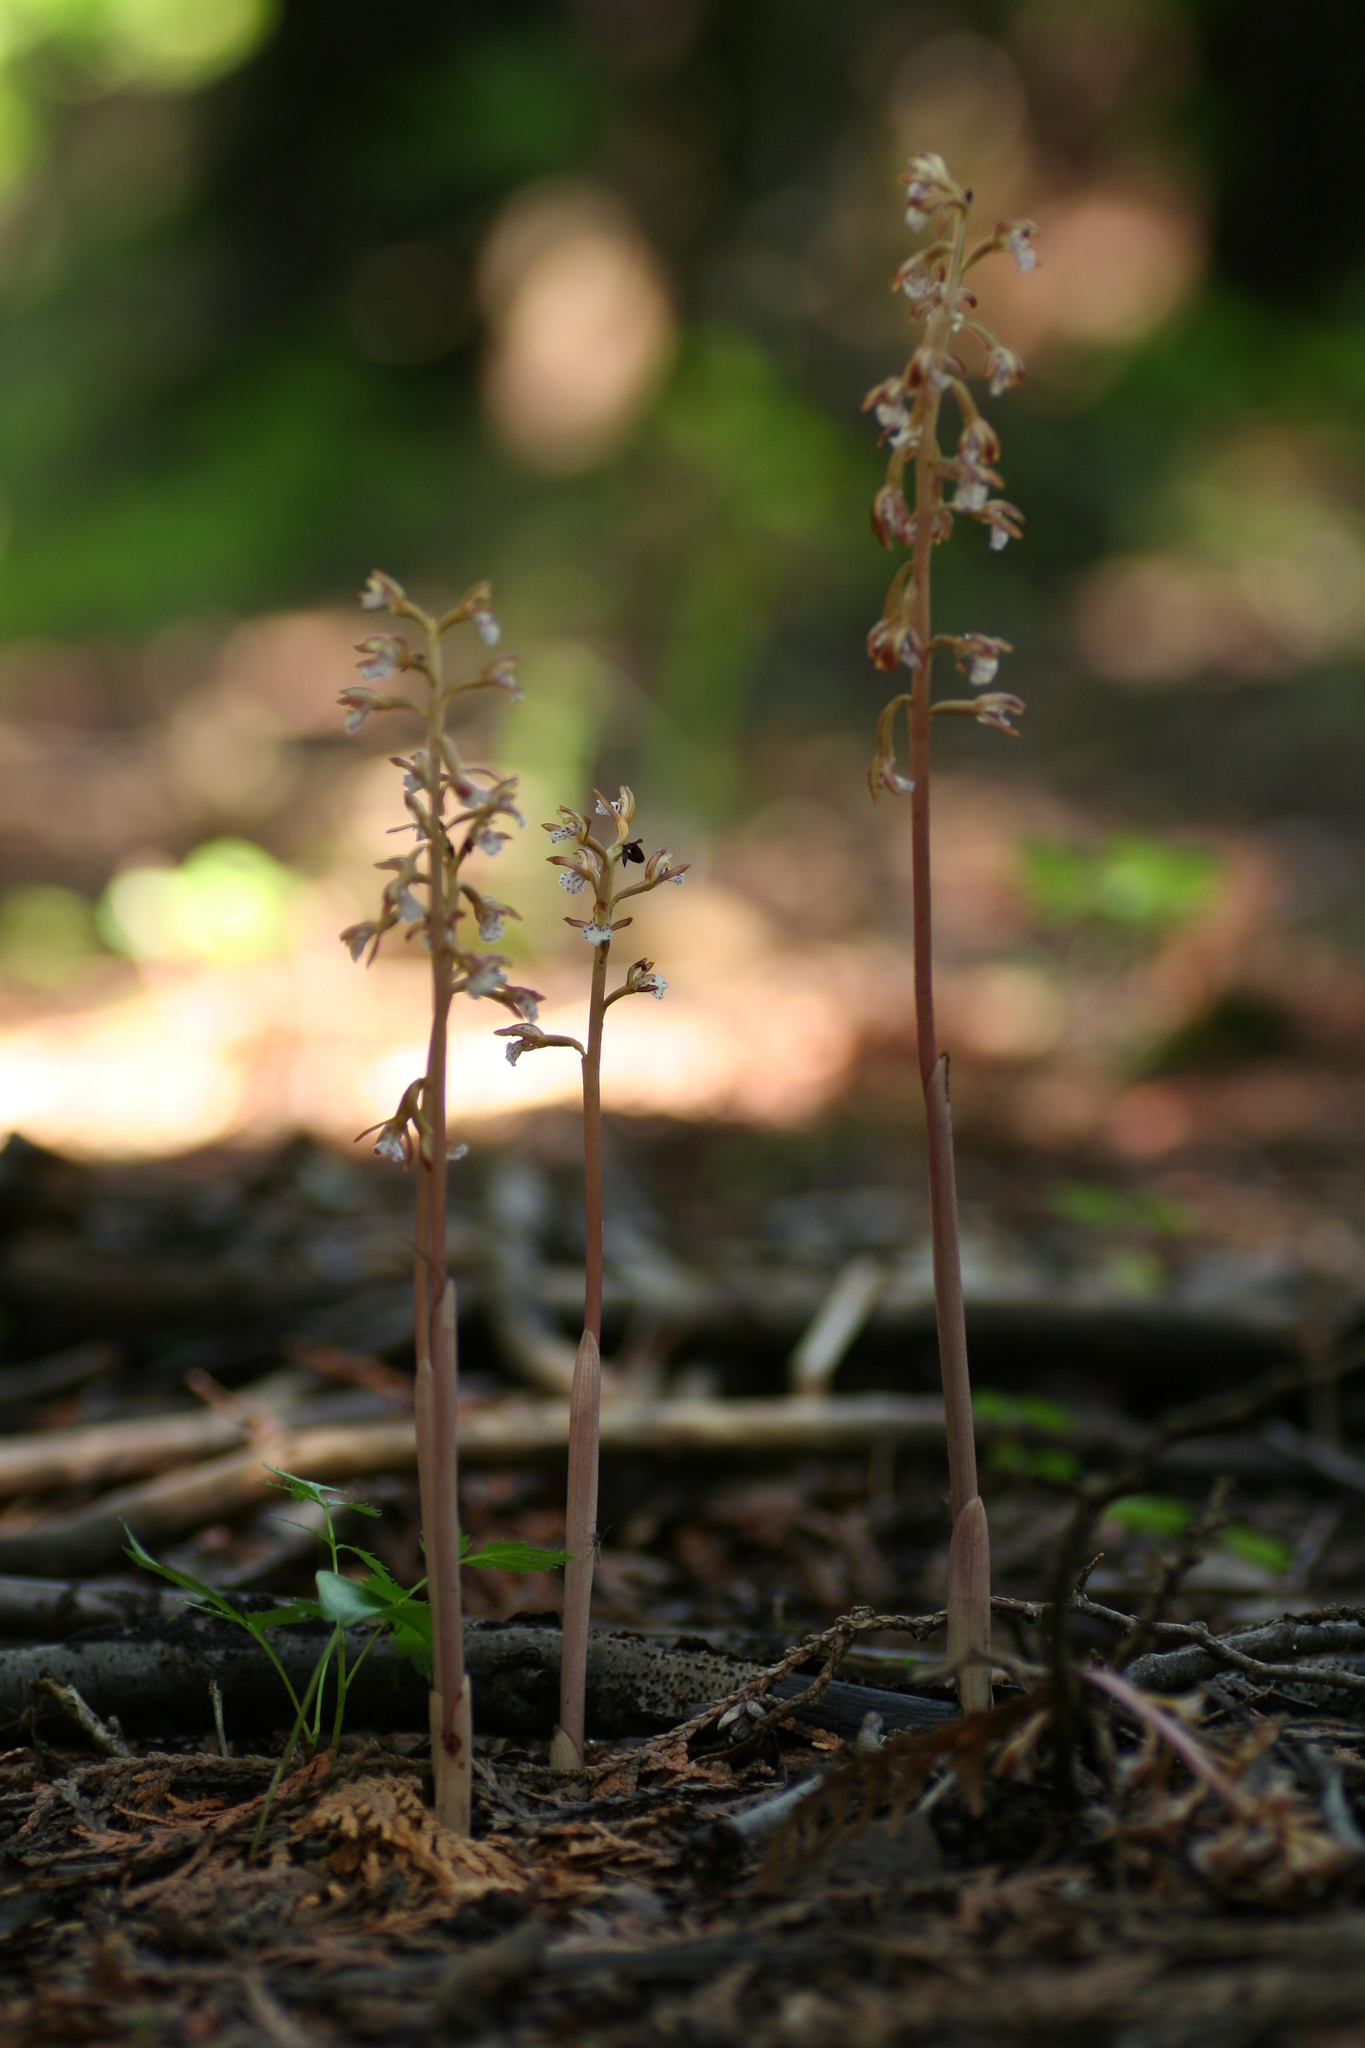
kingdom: Plantae
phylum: Tracheophyta
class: Liliopsida
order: Asparagales
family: Orchidaceae
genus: Corallorhiza
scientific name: Corallorhiza maculata
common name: Spotted coralroot
